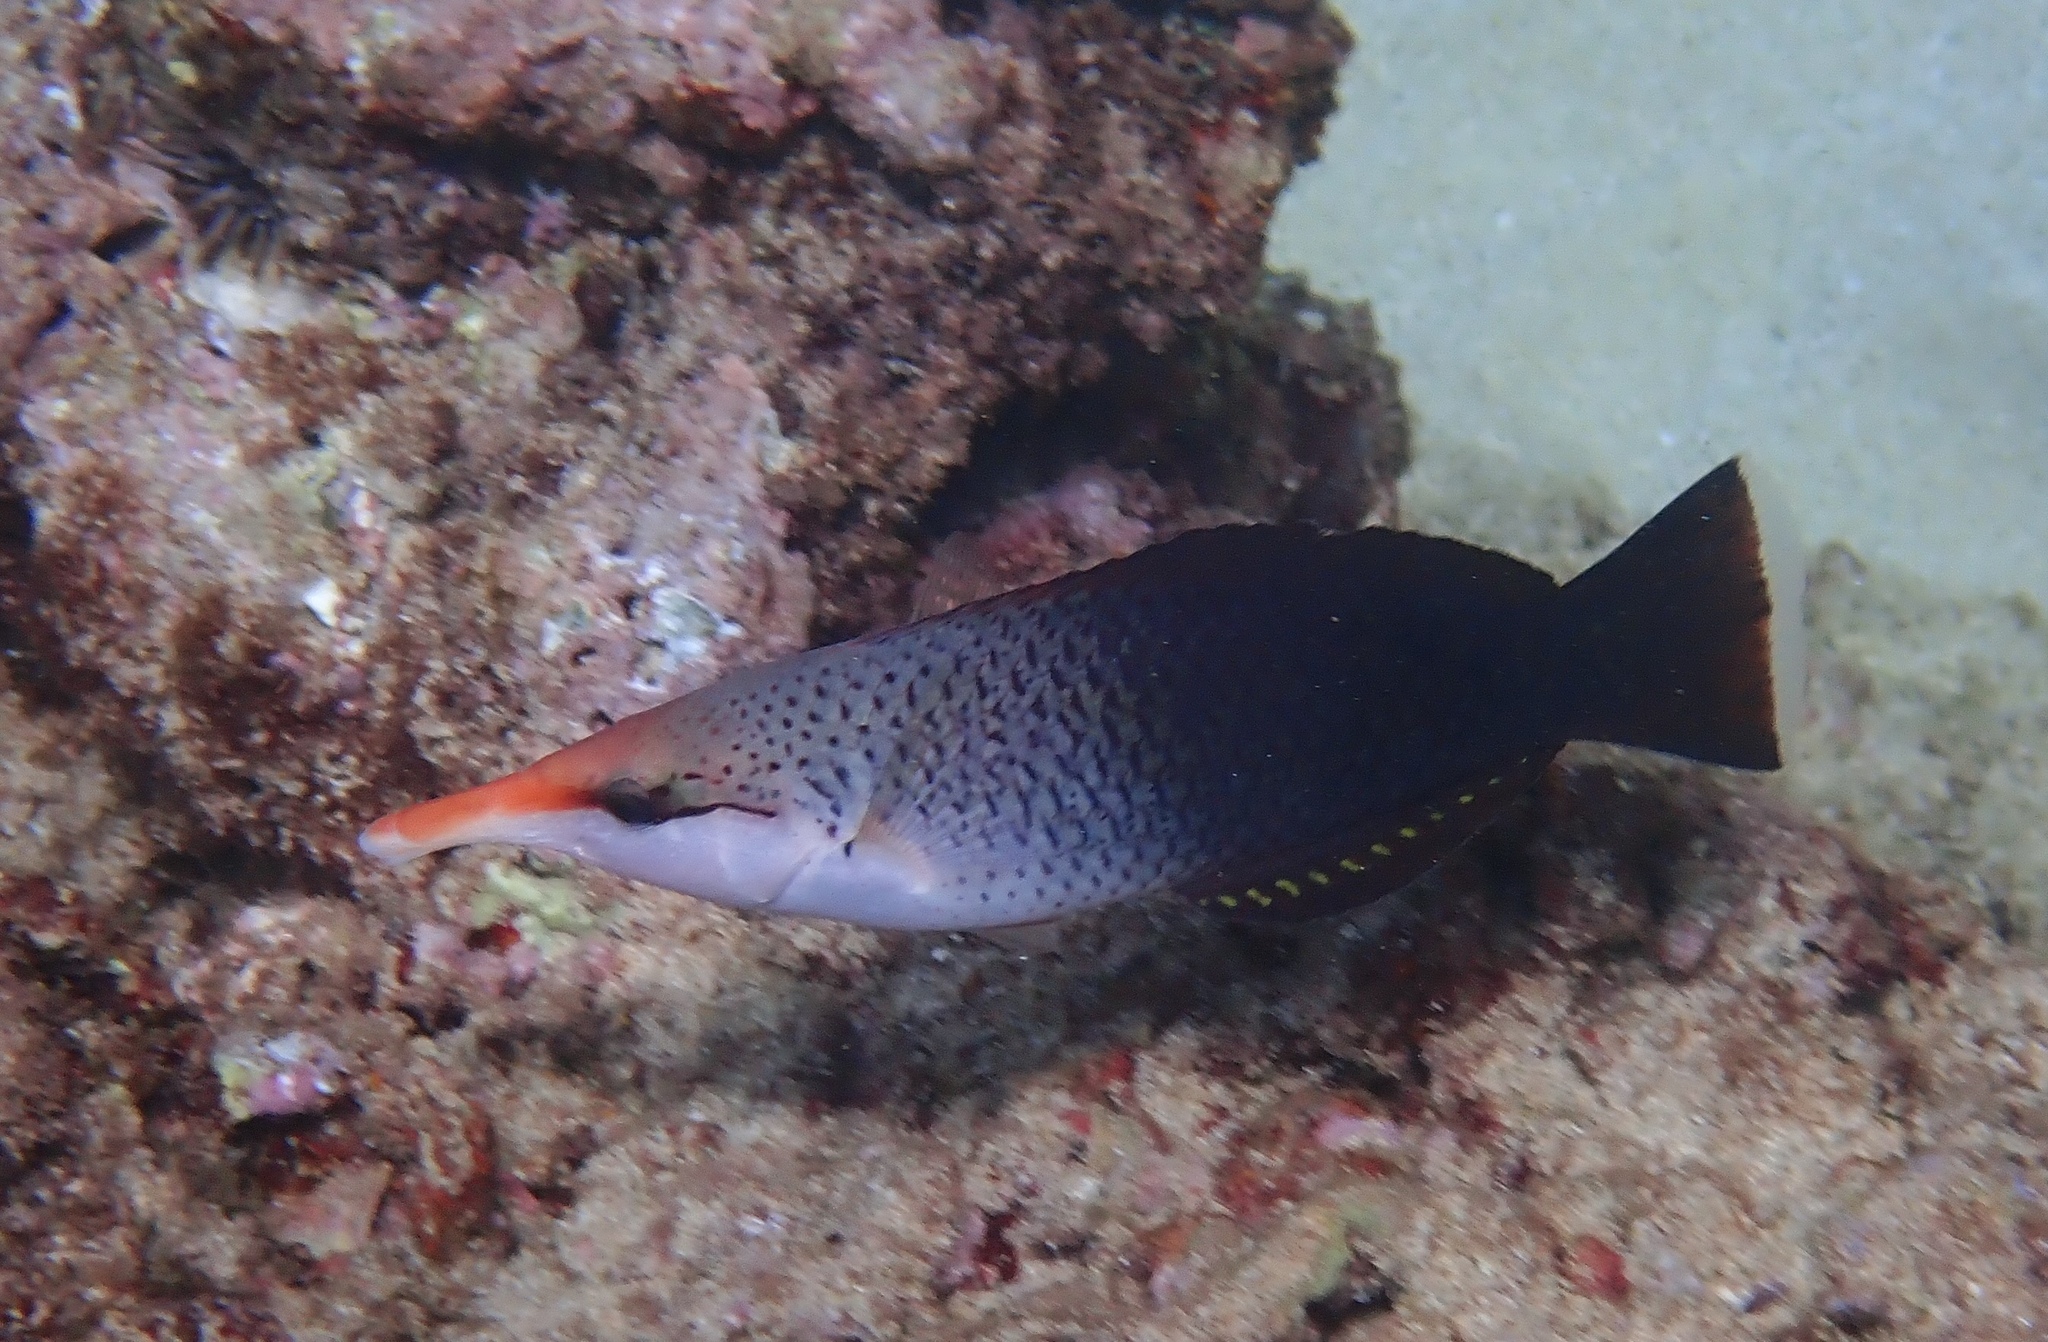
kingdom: Animalia
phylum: Chordata
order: Perciformes
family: Labridae
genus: Gomphosus
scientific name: Gomphosus varius
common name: Bird wrasse
